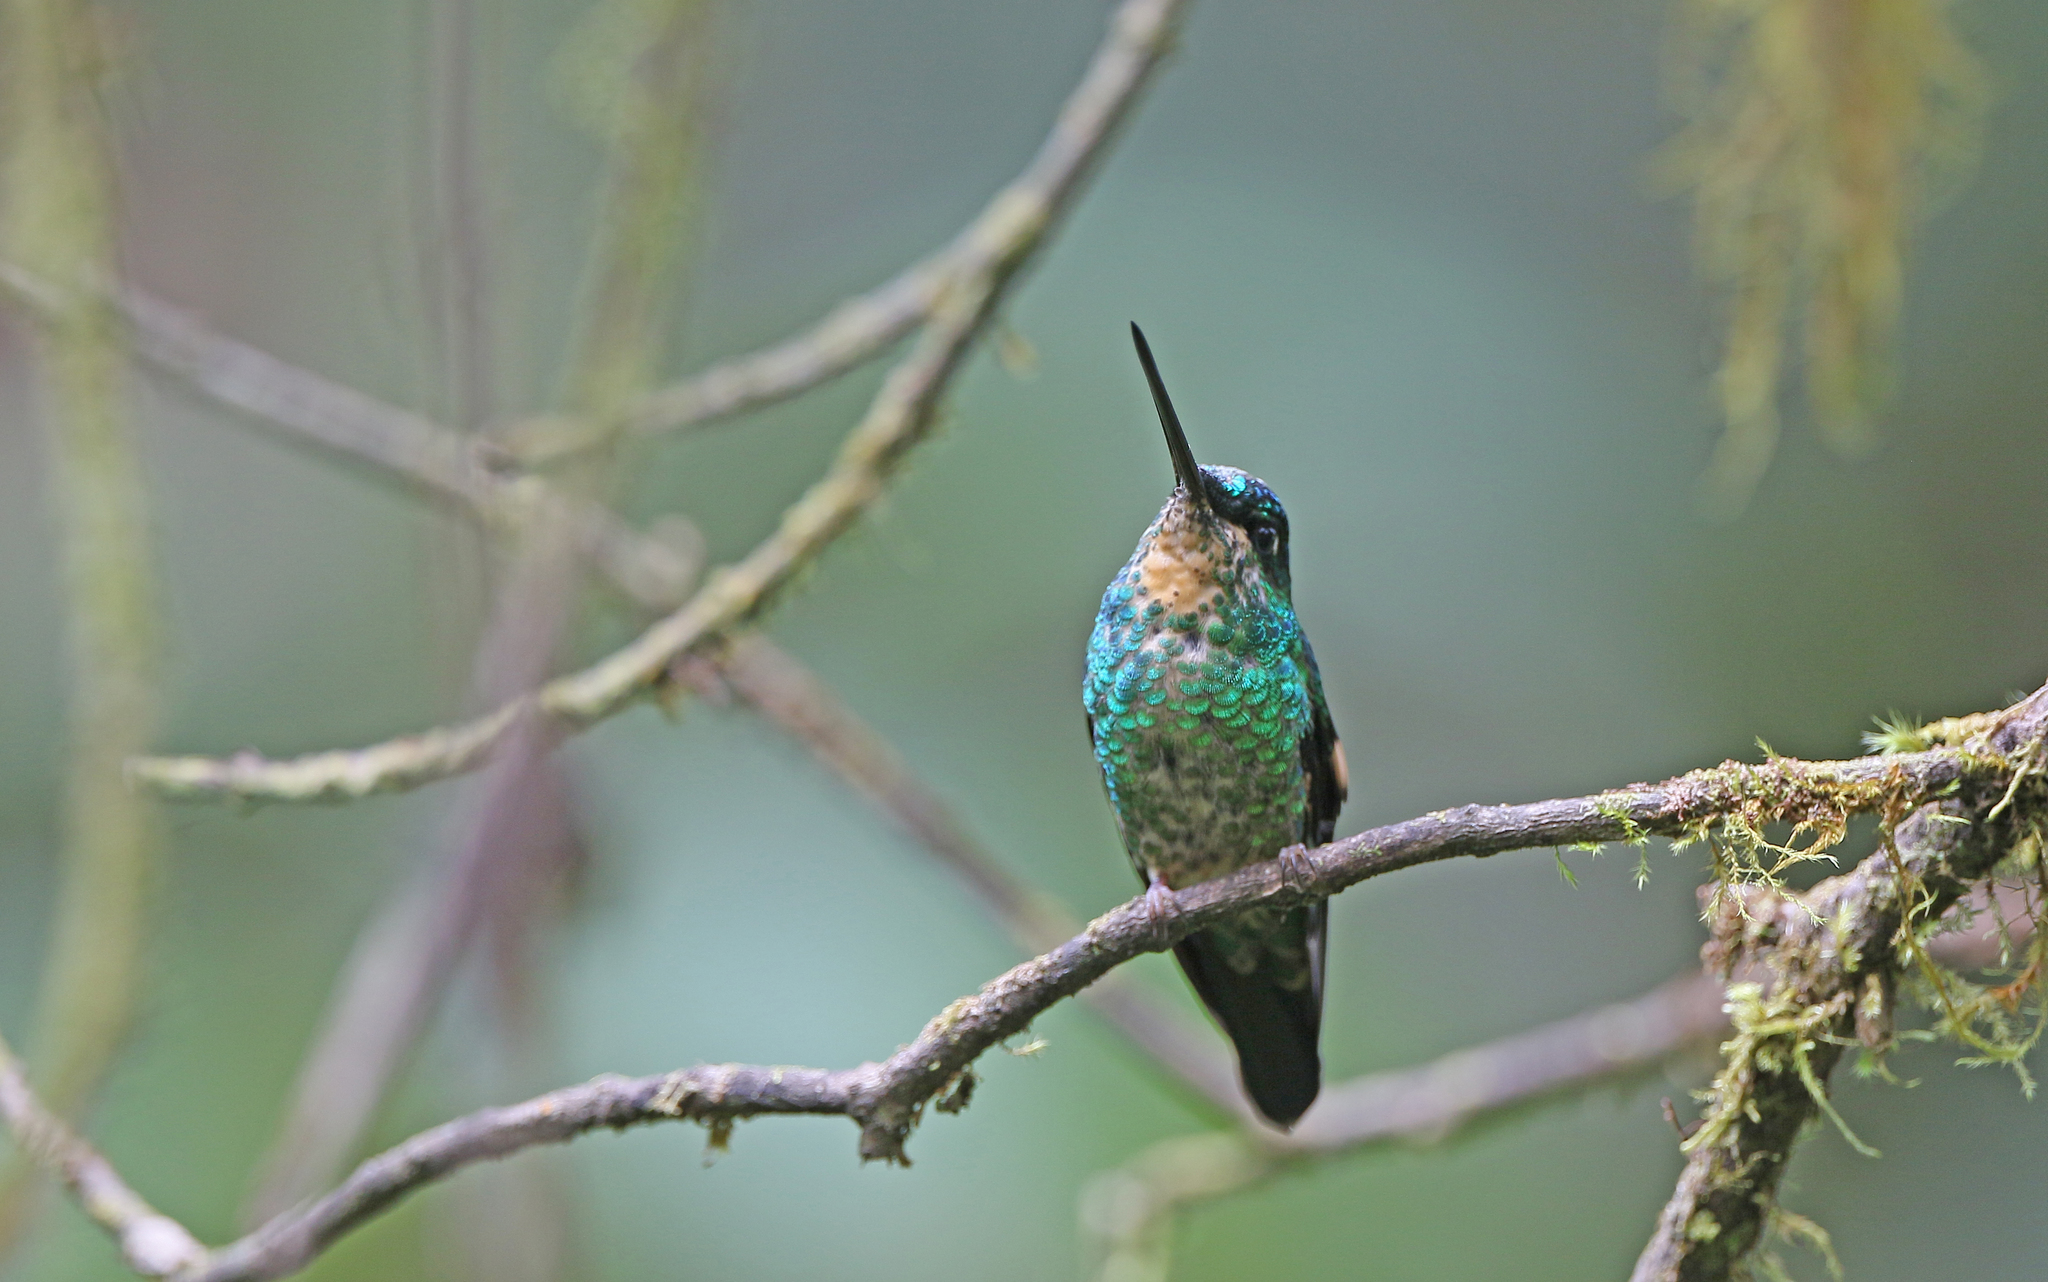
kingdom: Animalia
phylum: Chordata
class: Aves
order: Apodiformes
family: Trochilidae
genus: Coeligena
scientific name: Coeligena lutetiae
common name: Buff-winged starfrontlet
